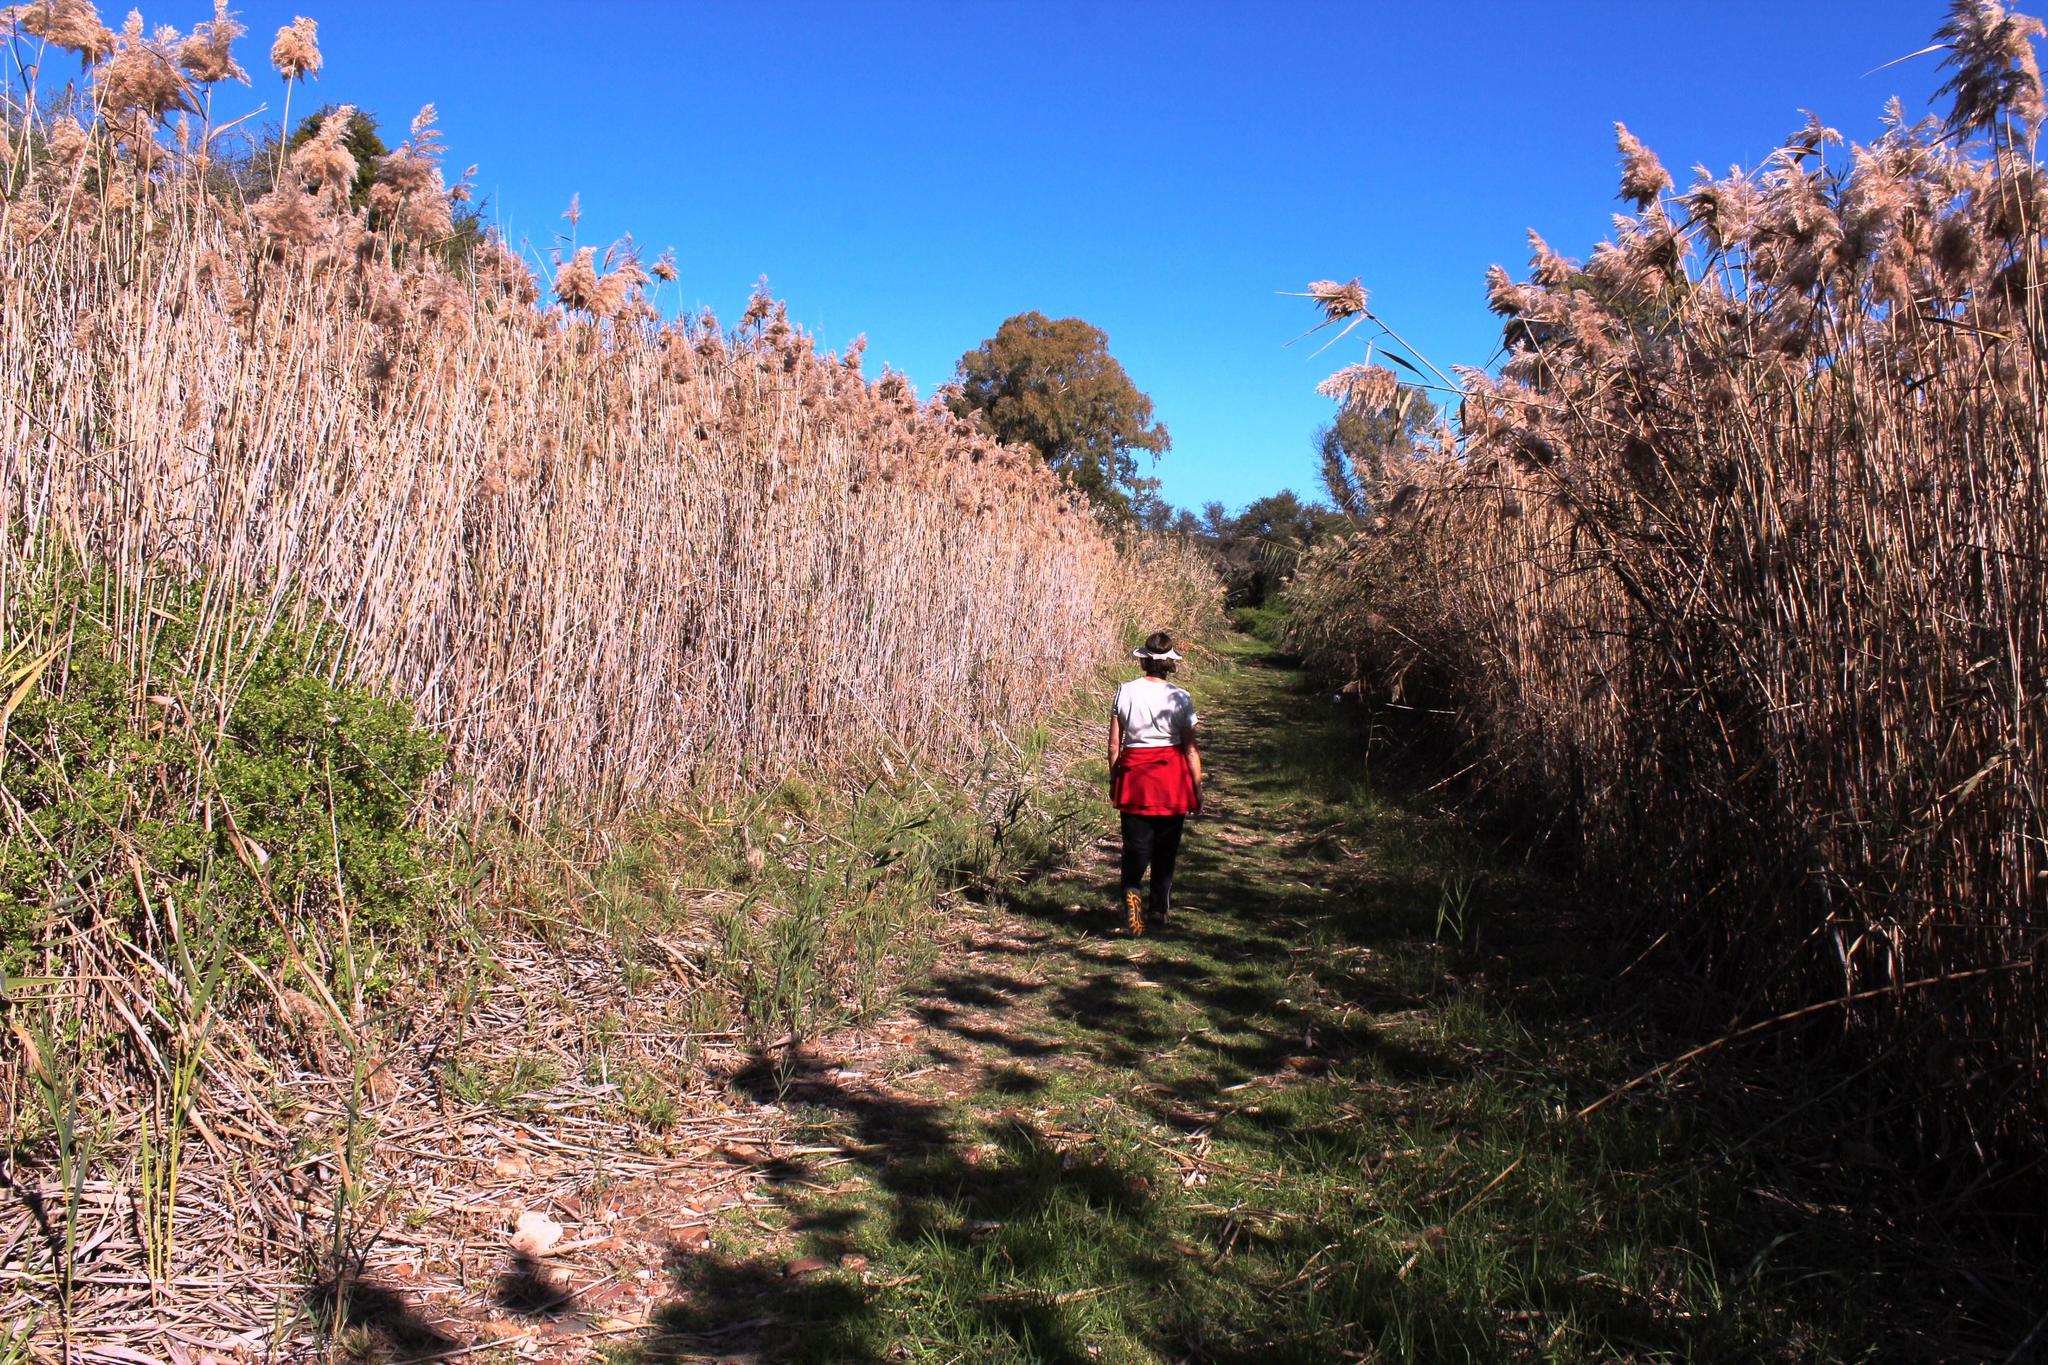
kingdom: Plantae
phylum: Tracheophyta
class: Liliopsida
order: Poales
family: Poaceae
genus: Phragmites
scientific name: Phragmites australis
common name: Common reed
